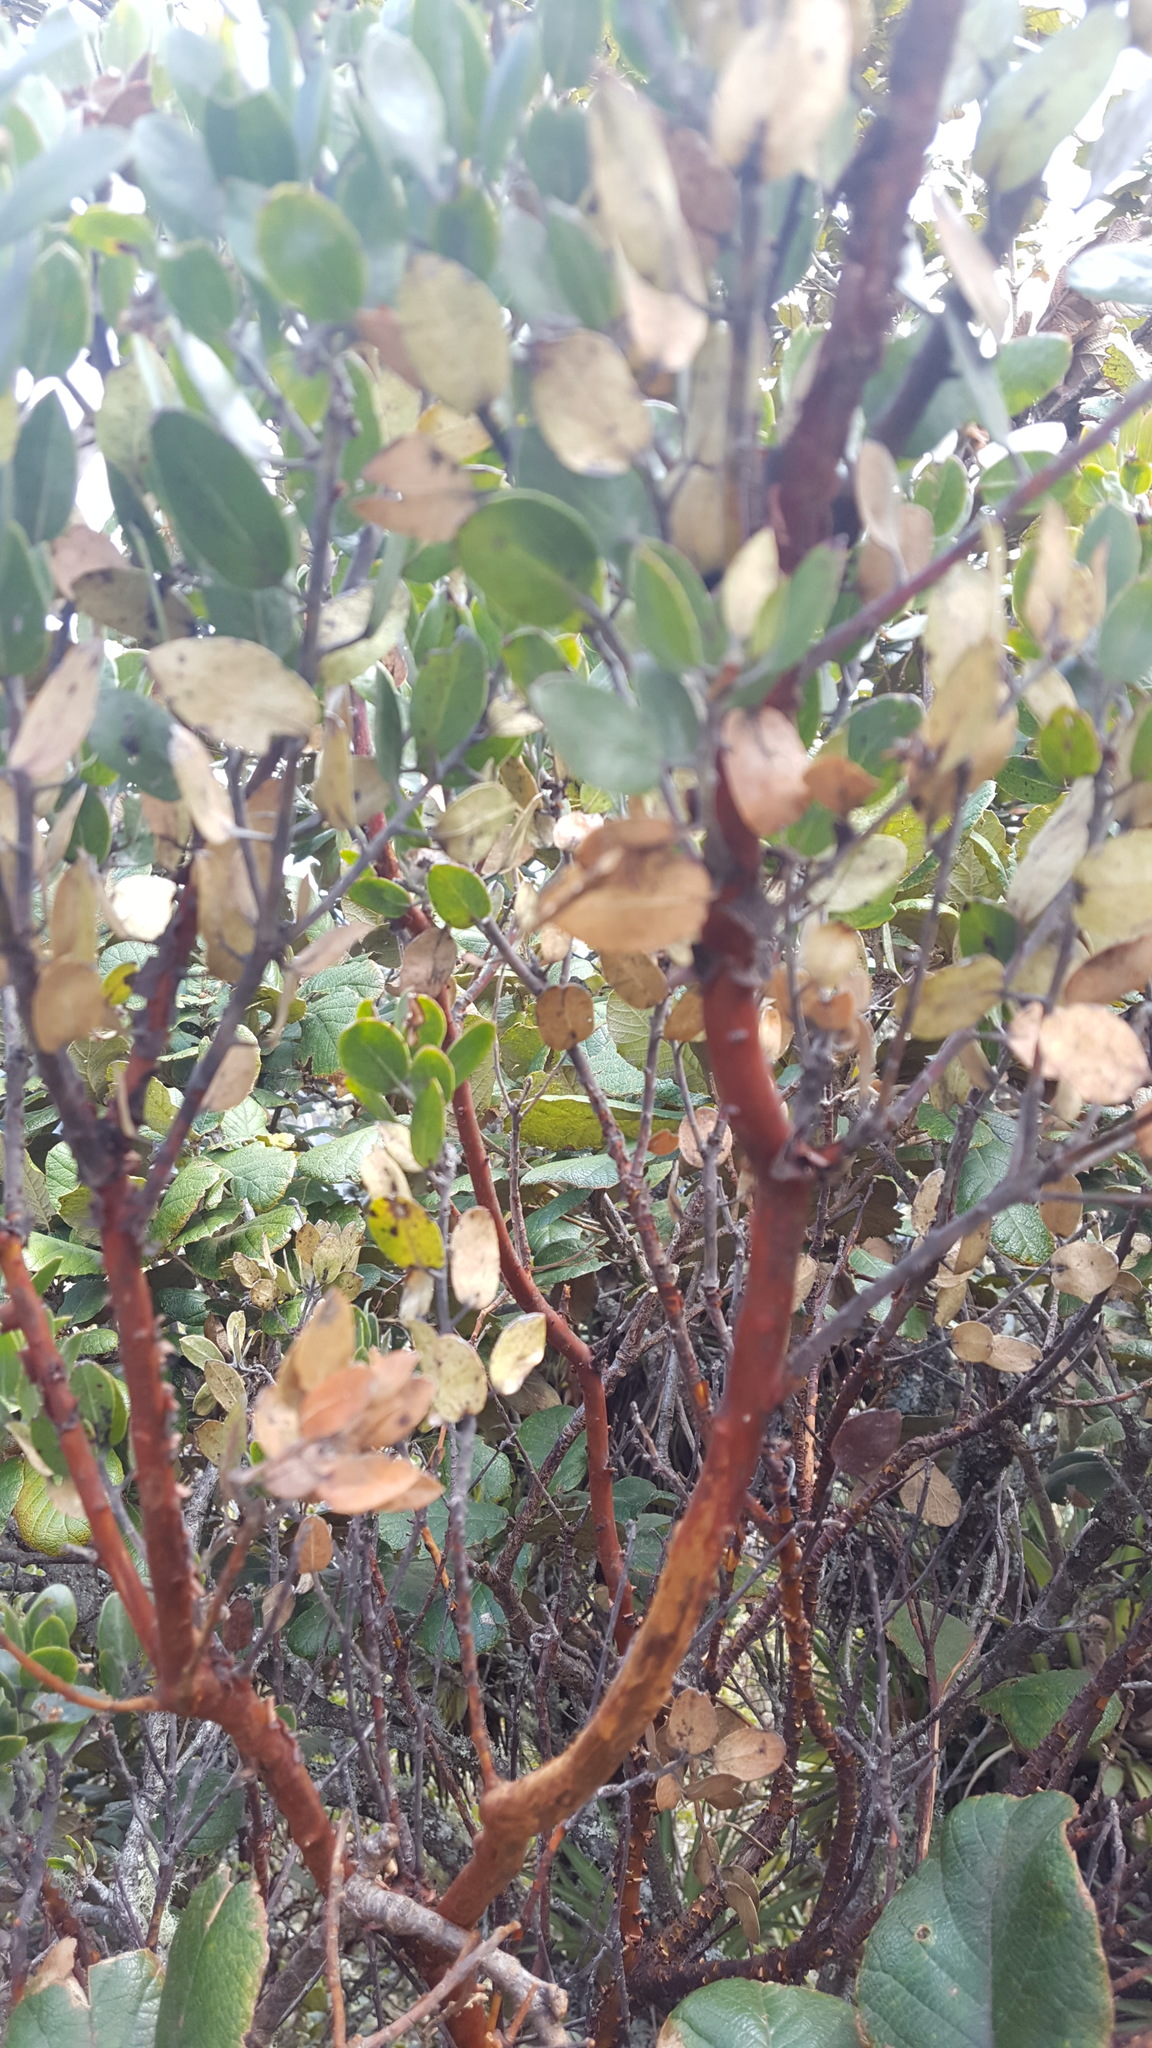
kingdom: Plantae
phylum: Tracheophyta
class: Magnoliopsida
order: Ericales
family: Ericaceae
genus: Arctostaphylos
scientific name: Arctostaphylos pungens
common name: Mexican manzanita
